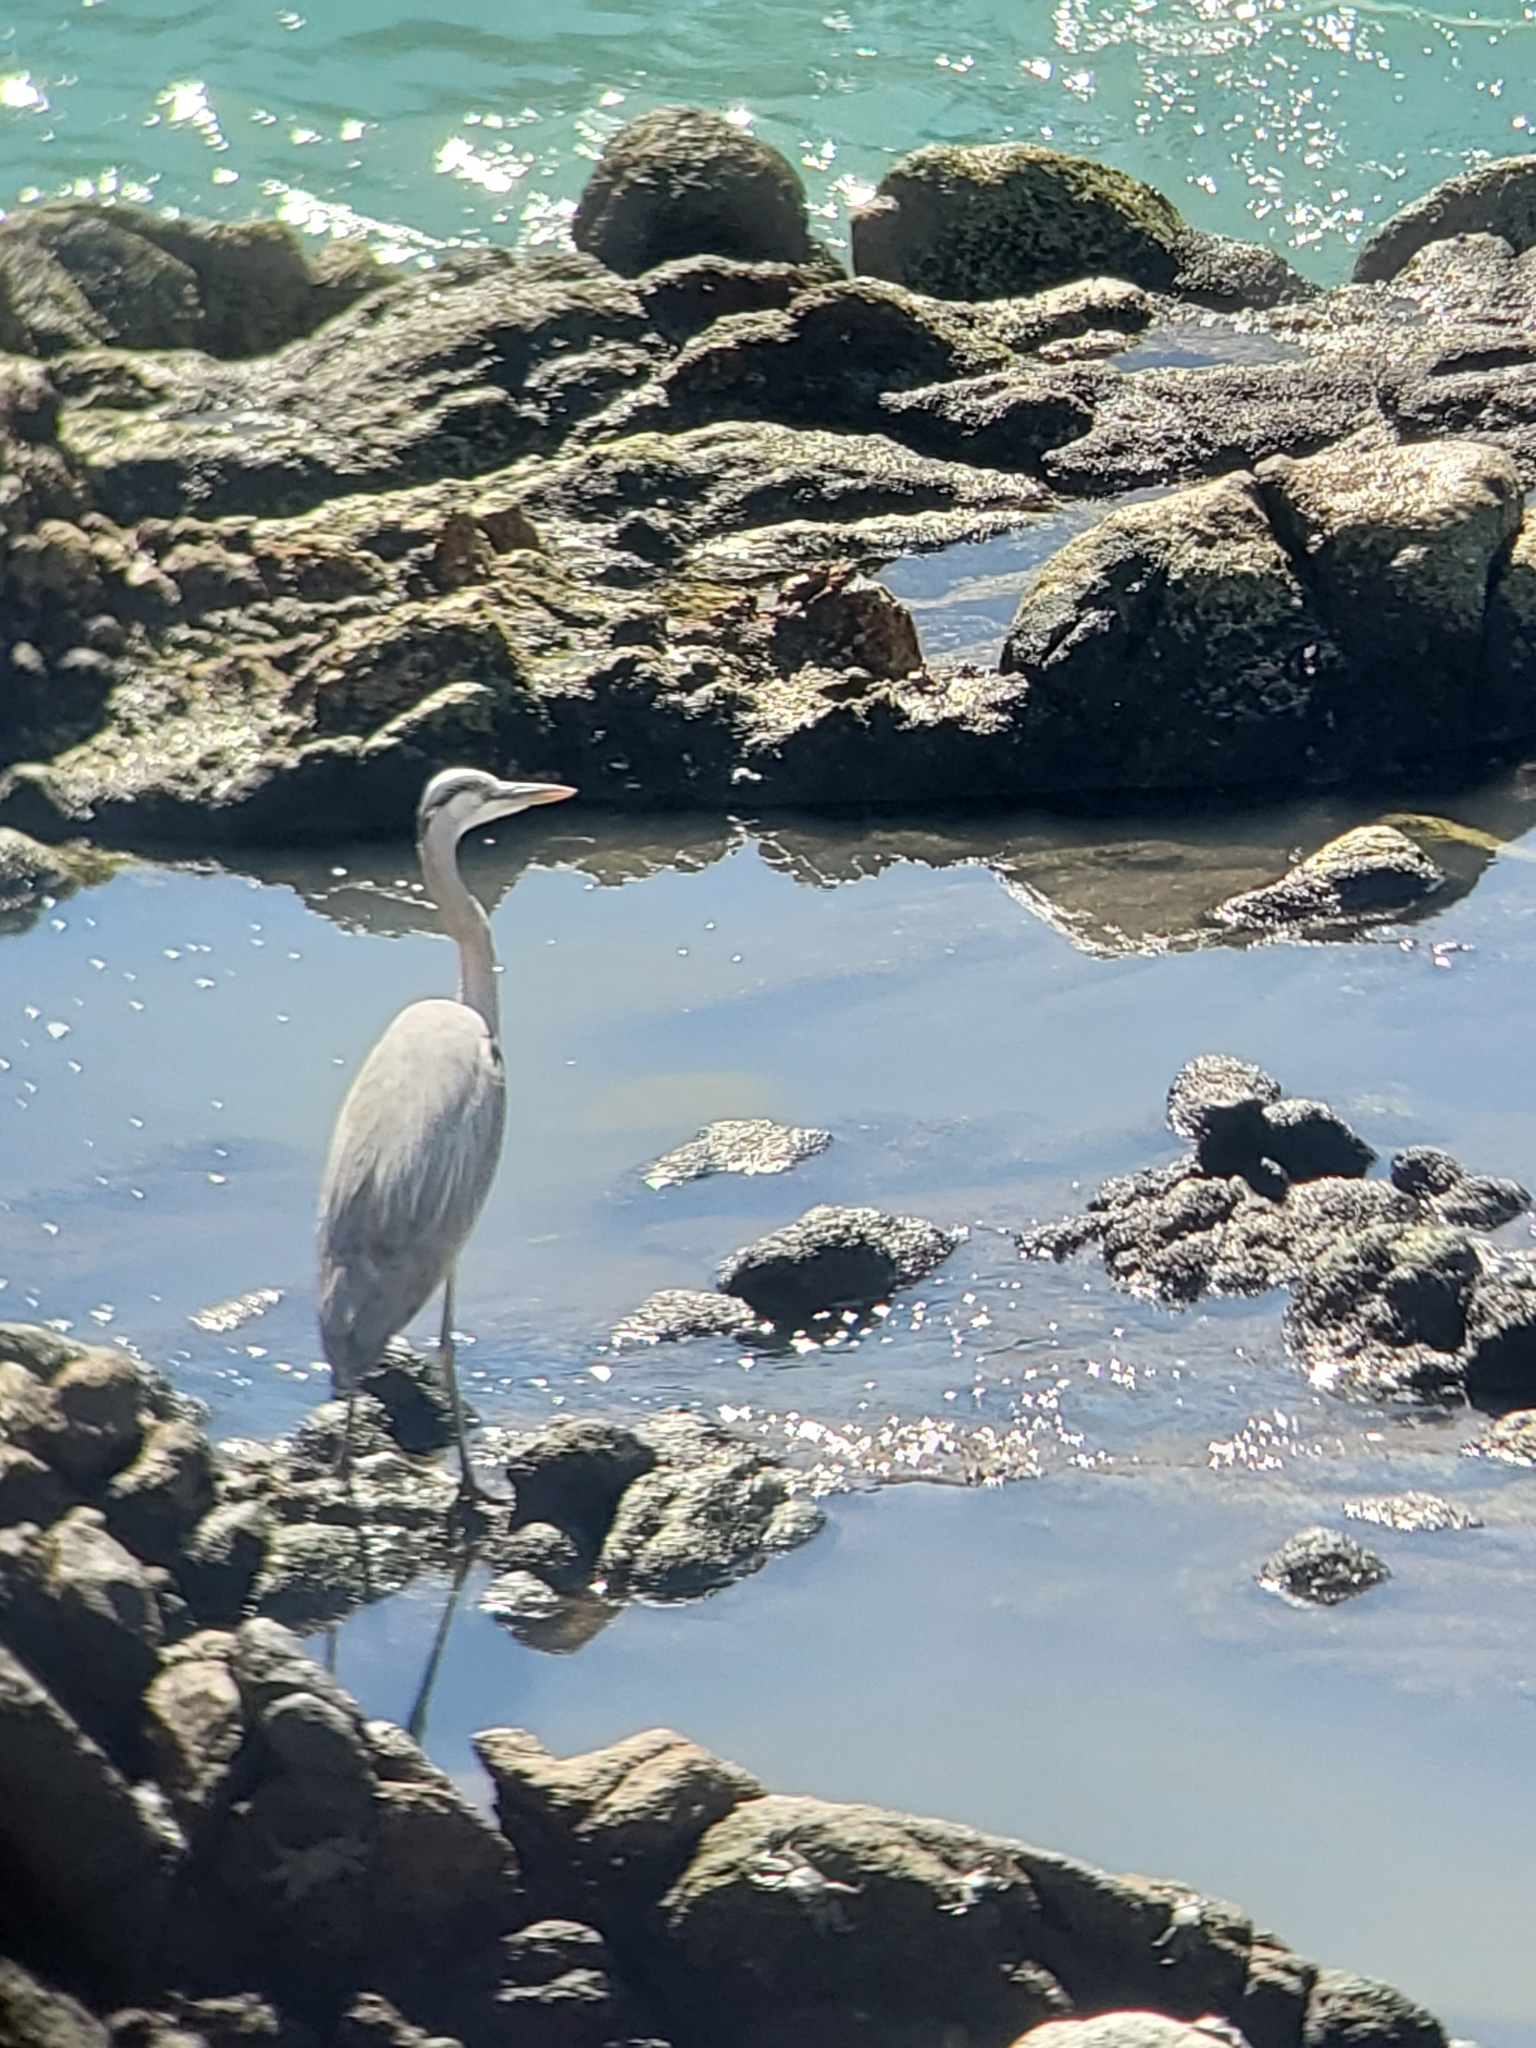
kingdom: Animalia
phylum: Chordata
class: Aves
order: Pelecaniformes
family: Ardeidae
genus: Ardea
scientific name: Ardea herodias
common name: Great blue heron
